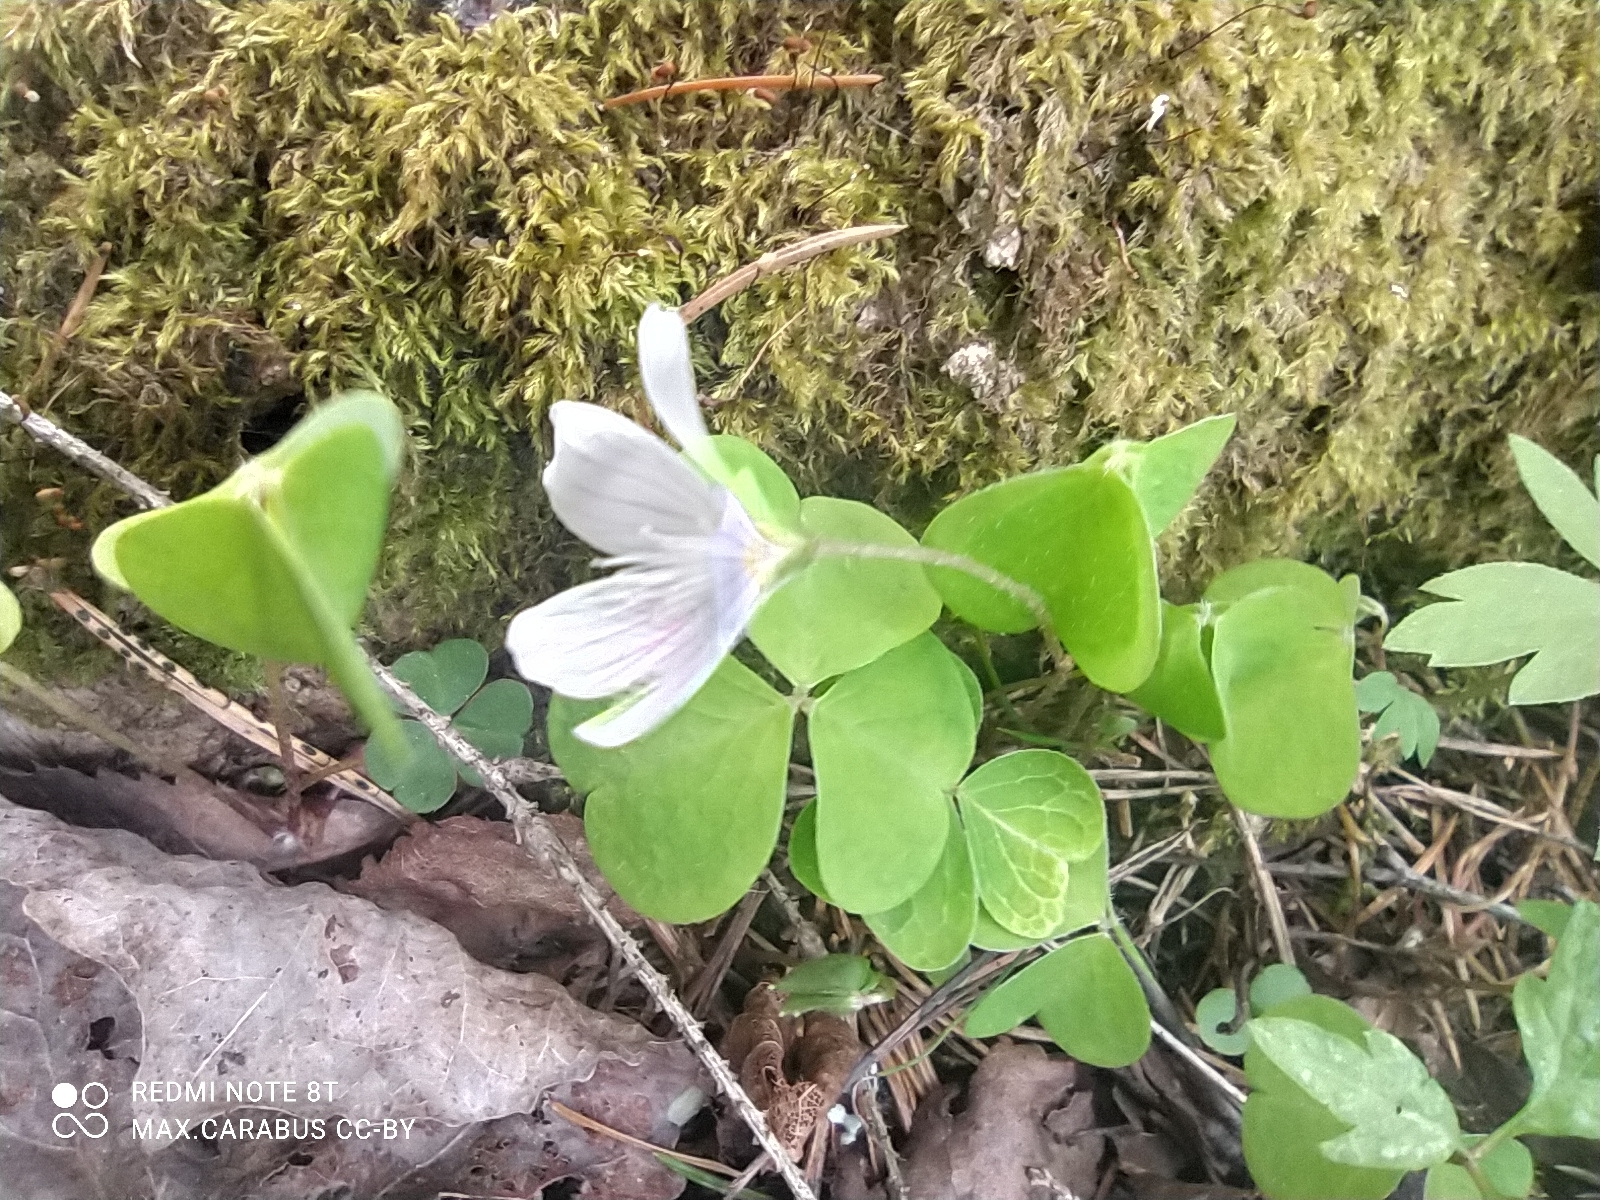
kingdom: Plantae
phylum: Tracheophyta
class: Magnoliopsida
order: Oxalidales
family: Oxalidaceae
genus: Oxalis
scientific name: Oxalis acetosella
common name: Wood-sorrel
